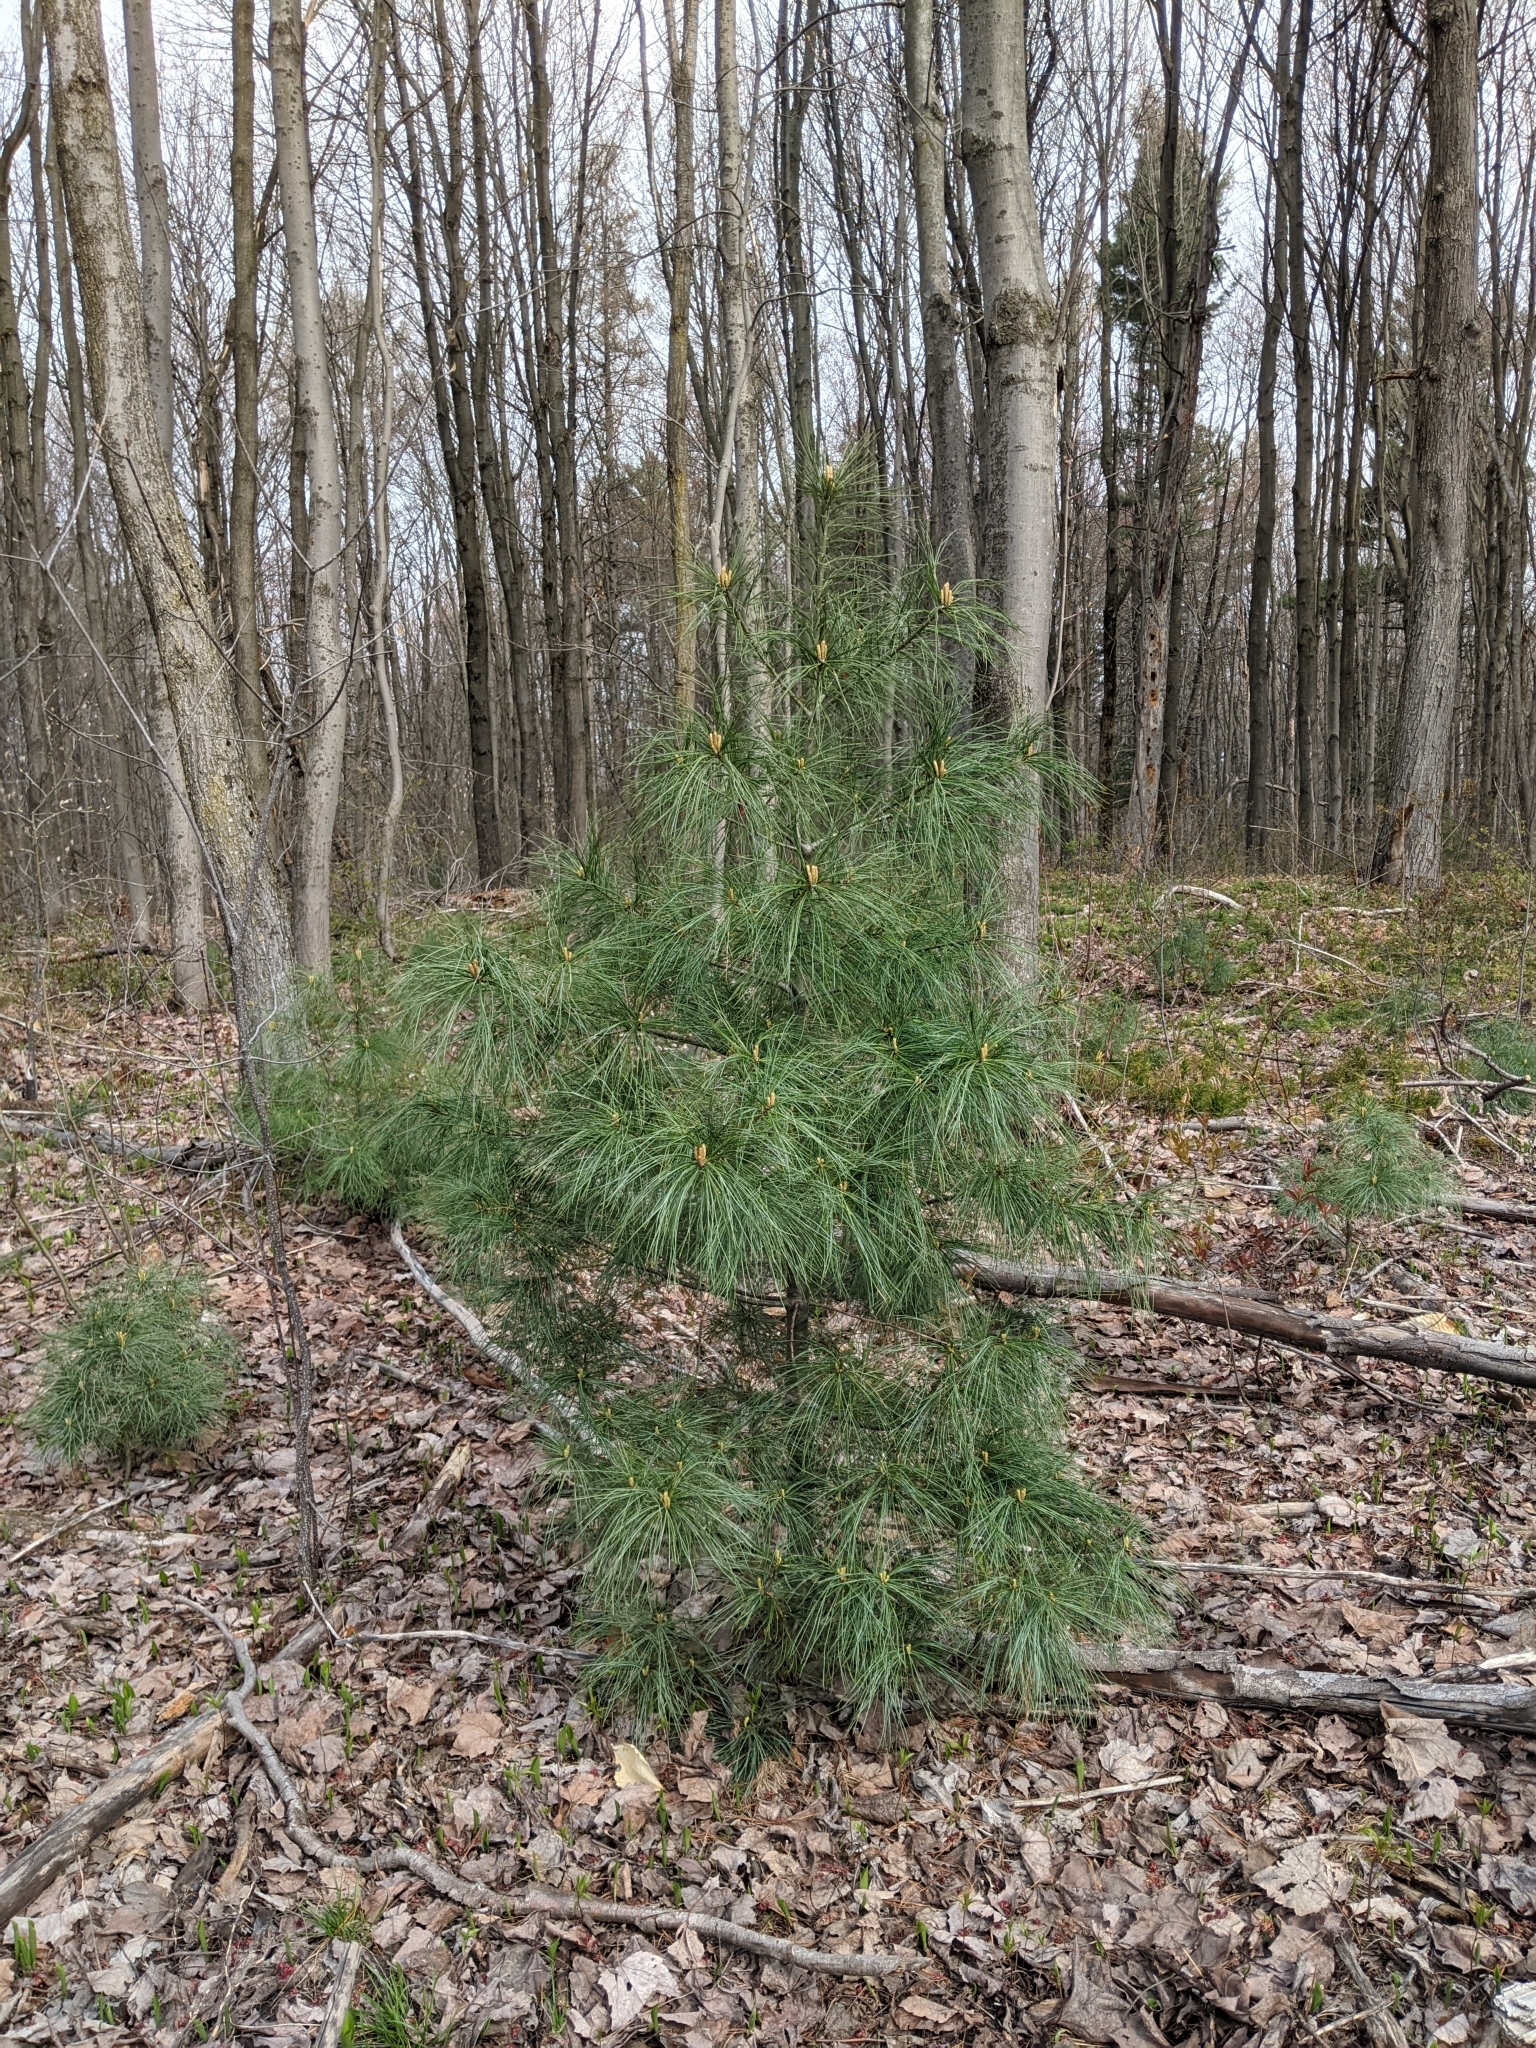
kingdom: Plantae
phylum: Tracheophyta
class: Pinopsida
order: Pinales
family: Pinaceae
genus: Pinus
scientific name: Pinus strobus
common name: Weymouth pine
